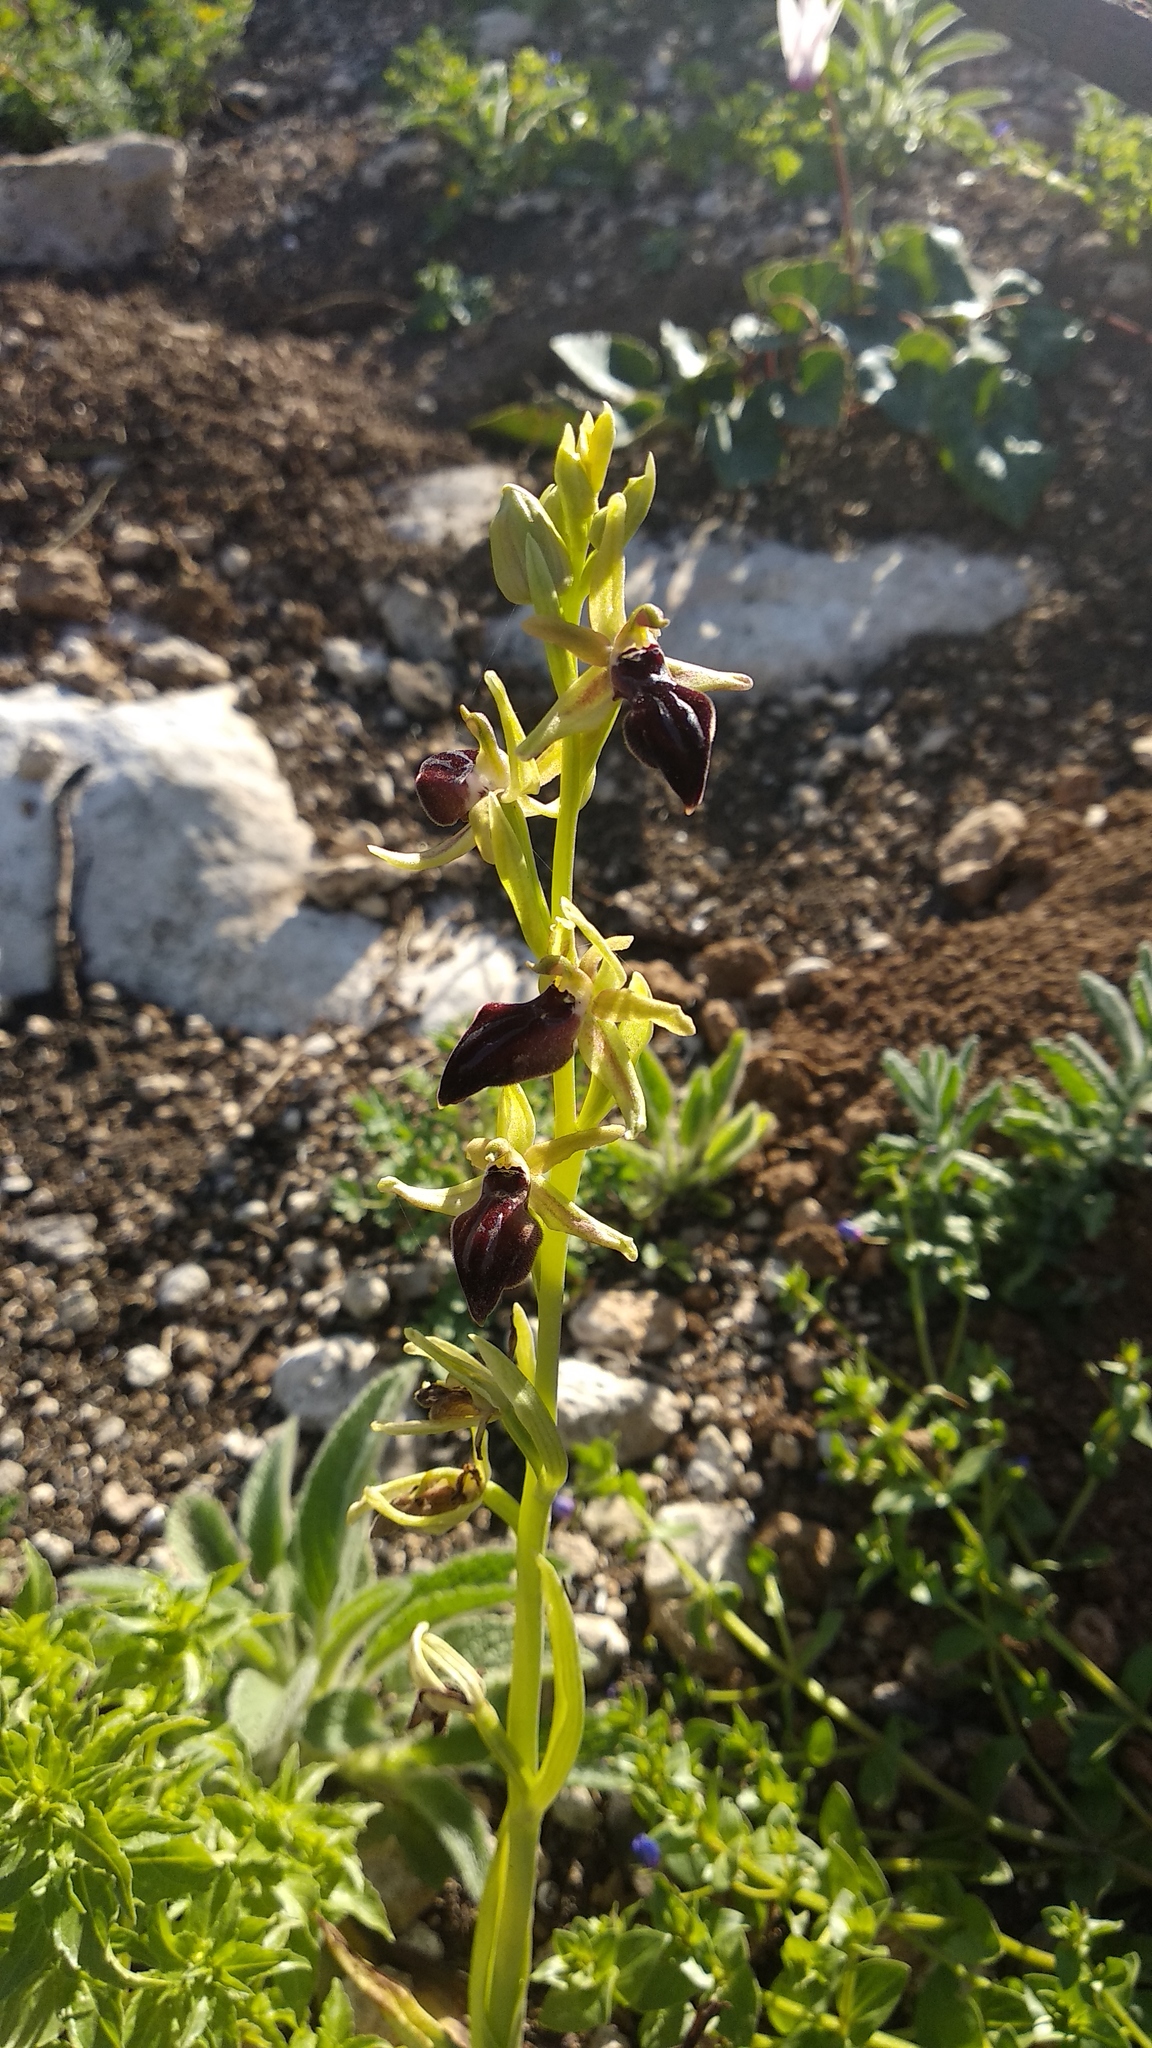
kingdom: Plantae
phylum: Tracheophyta
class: Liliopsida
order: Asparagales
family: Orchidaceae
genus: Ophrys
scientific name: Ophrys sphegodes
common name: Early spider-orchid
